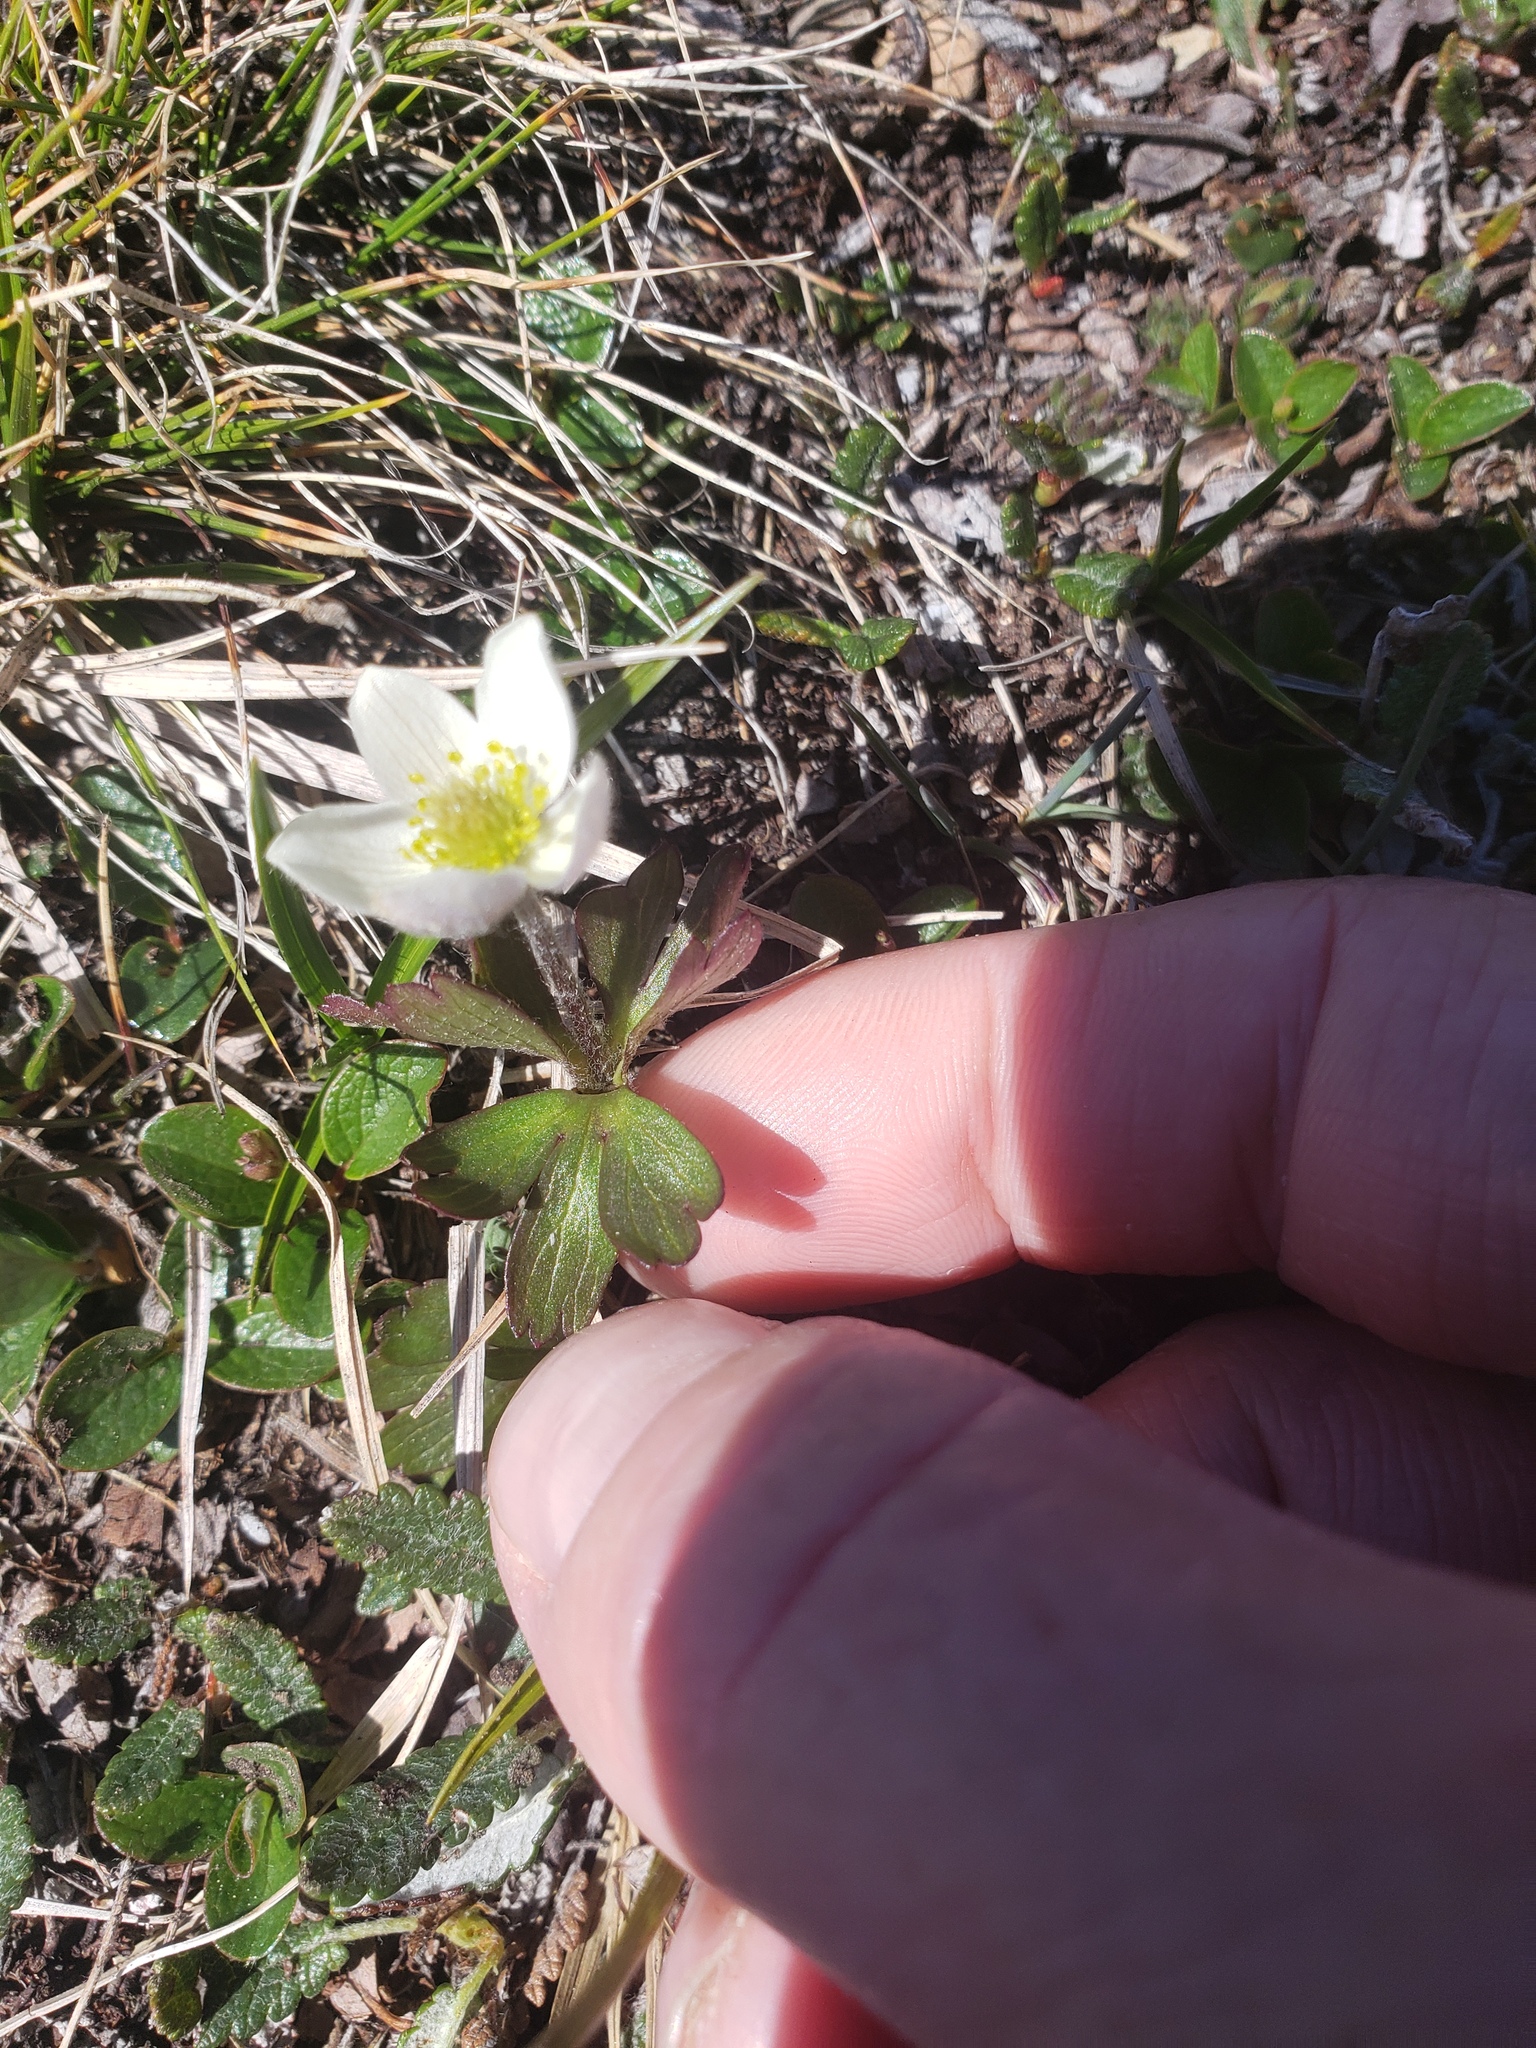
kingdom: Plantae
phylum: Tracheophyta
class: Magnoliopsida
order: Ranunculales
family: Ranunculaceae
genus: Anemone
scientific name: Anemone parviflora
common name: Northern anemone
